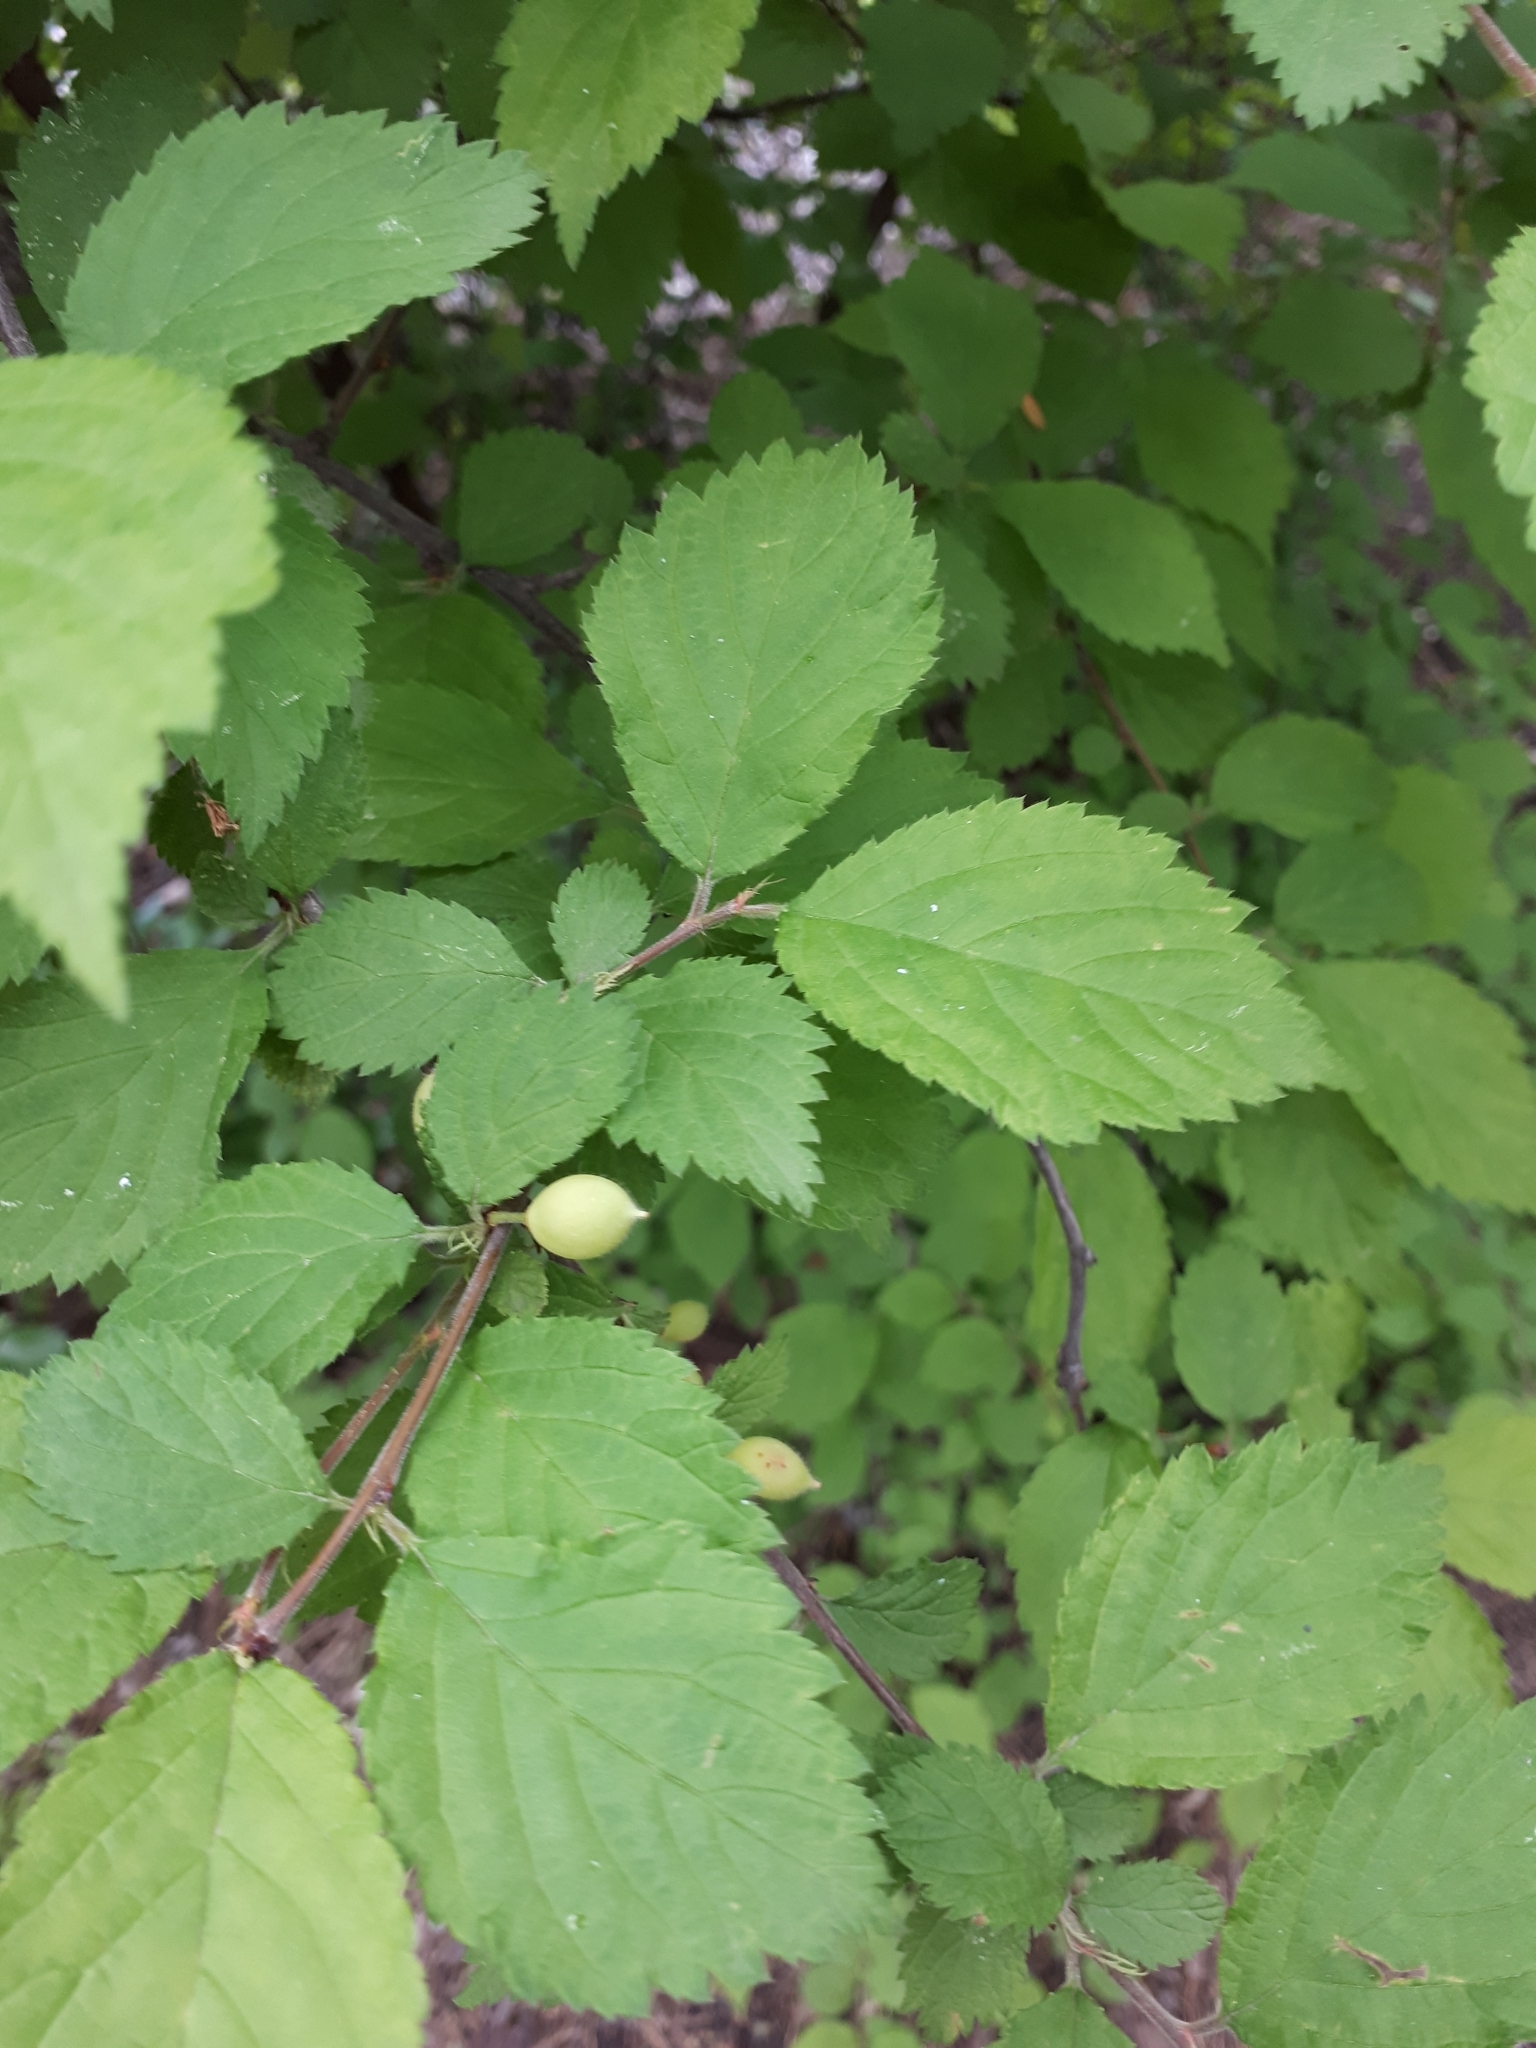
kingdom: Plantae
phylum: Tracheophyta
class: Magnoliopsida
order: Fagales
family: Betulaceae
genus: Corylus
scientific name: Corylus avellana
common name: European hazel
